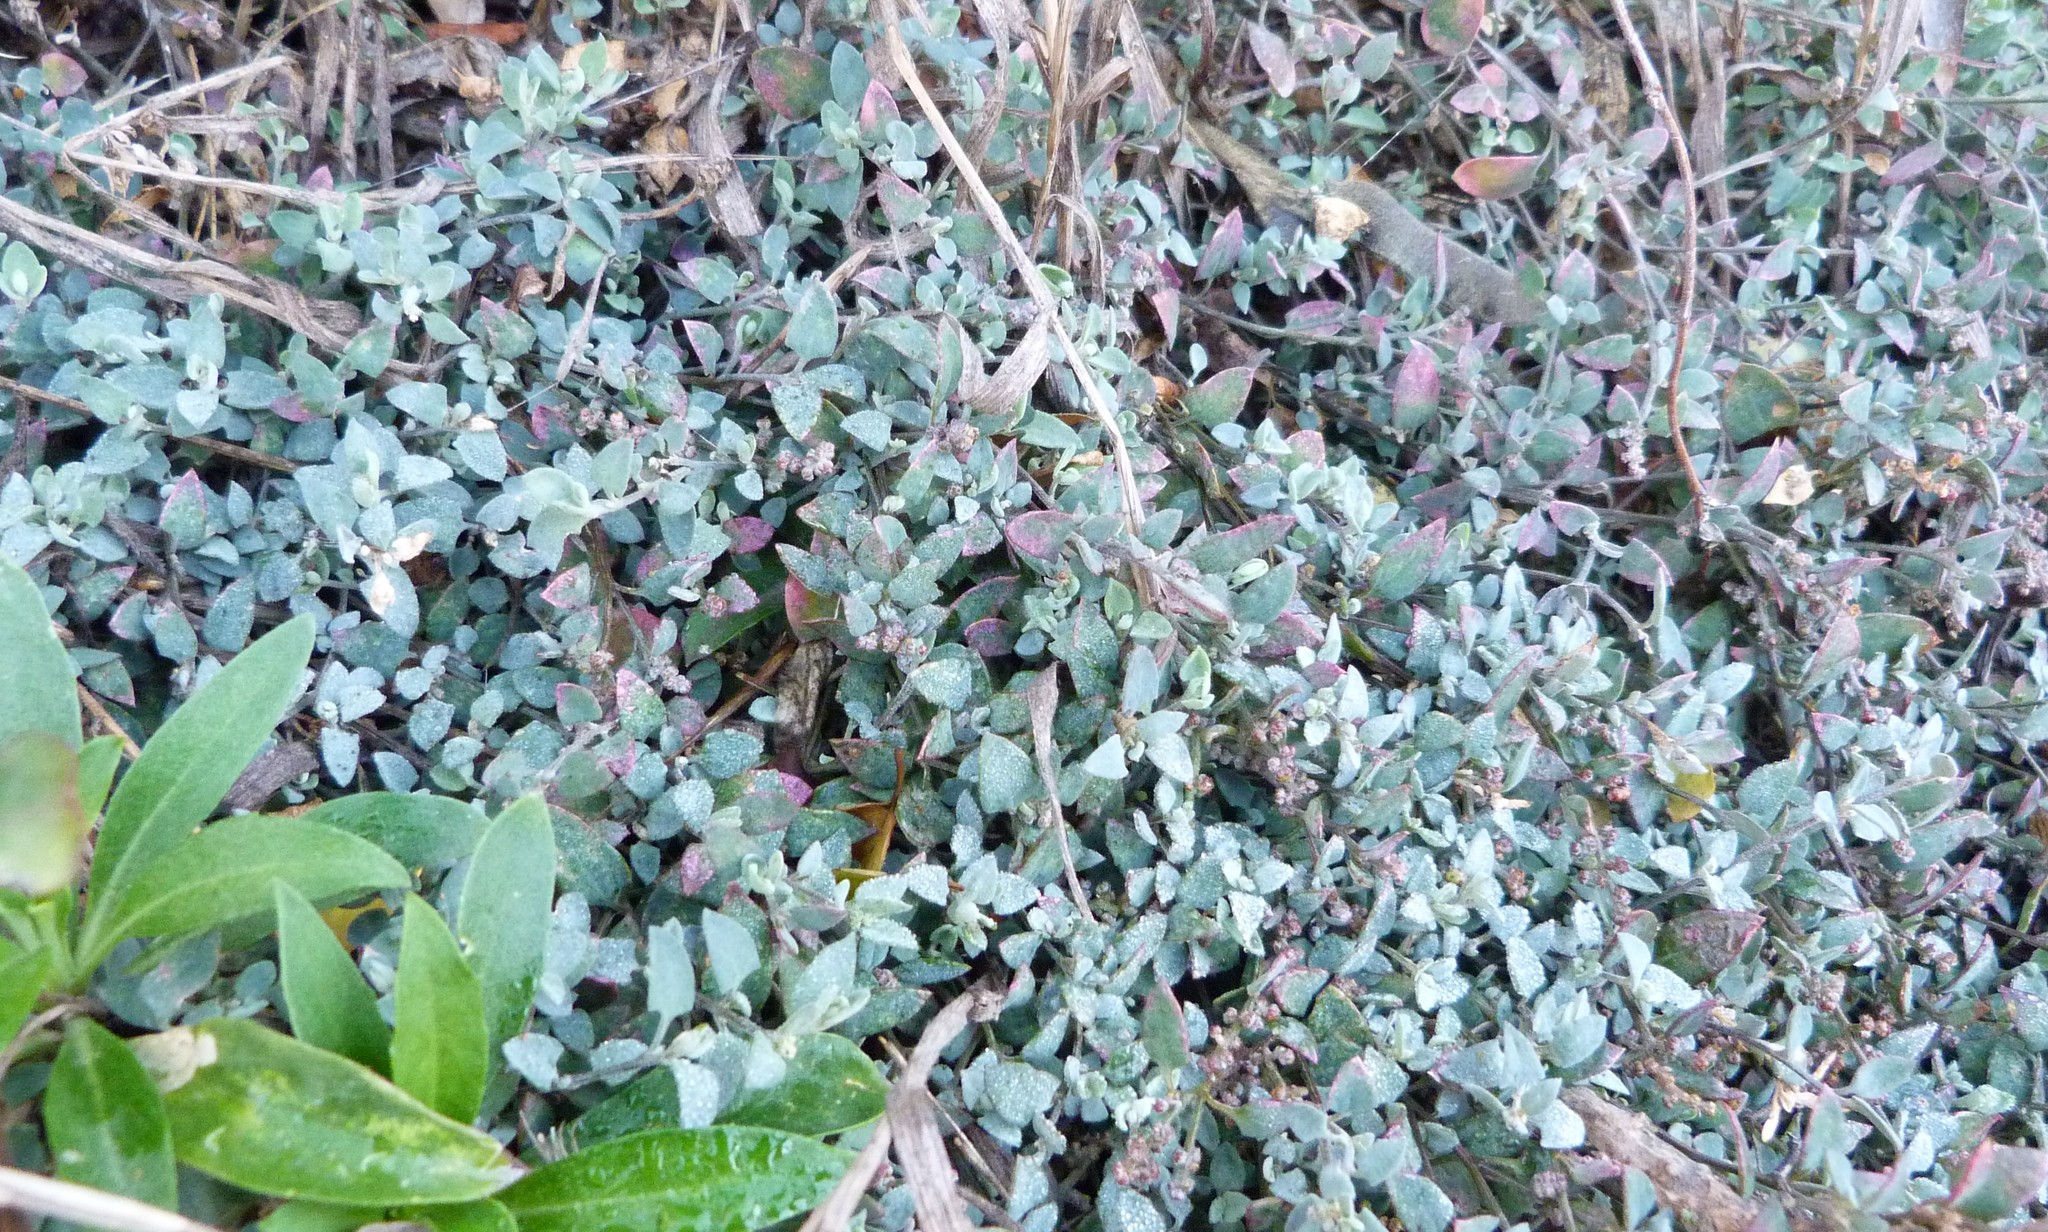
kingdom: Plantae
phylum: Tracheophyta
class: Magnoliopsida
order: Caryophyllales
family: Amaranthaceae
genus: Chenopodium
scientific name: Chenopodium triandrum
